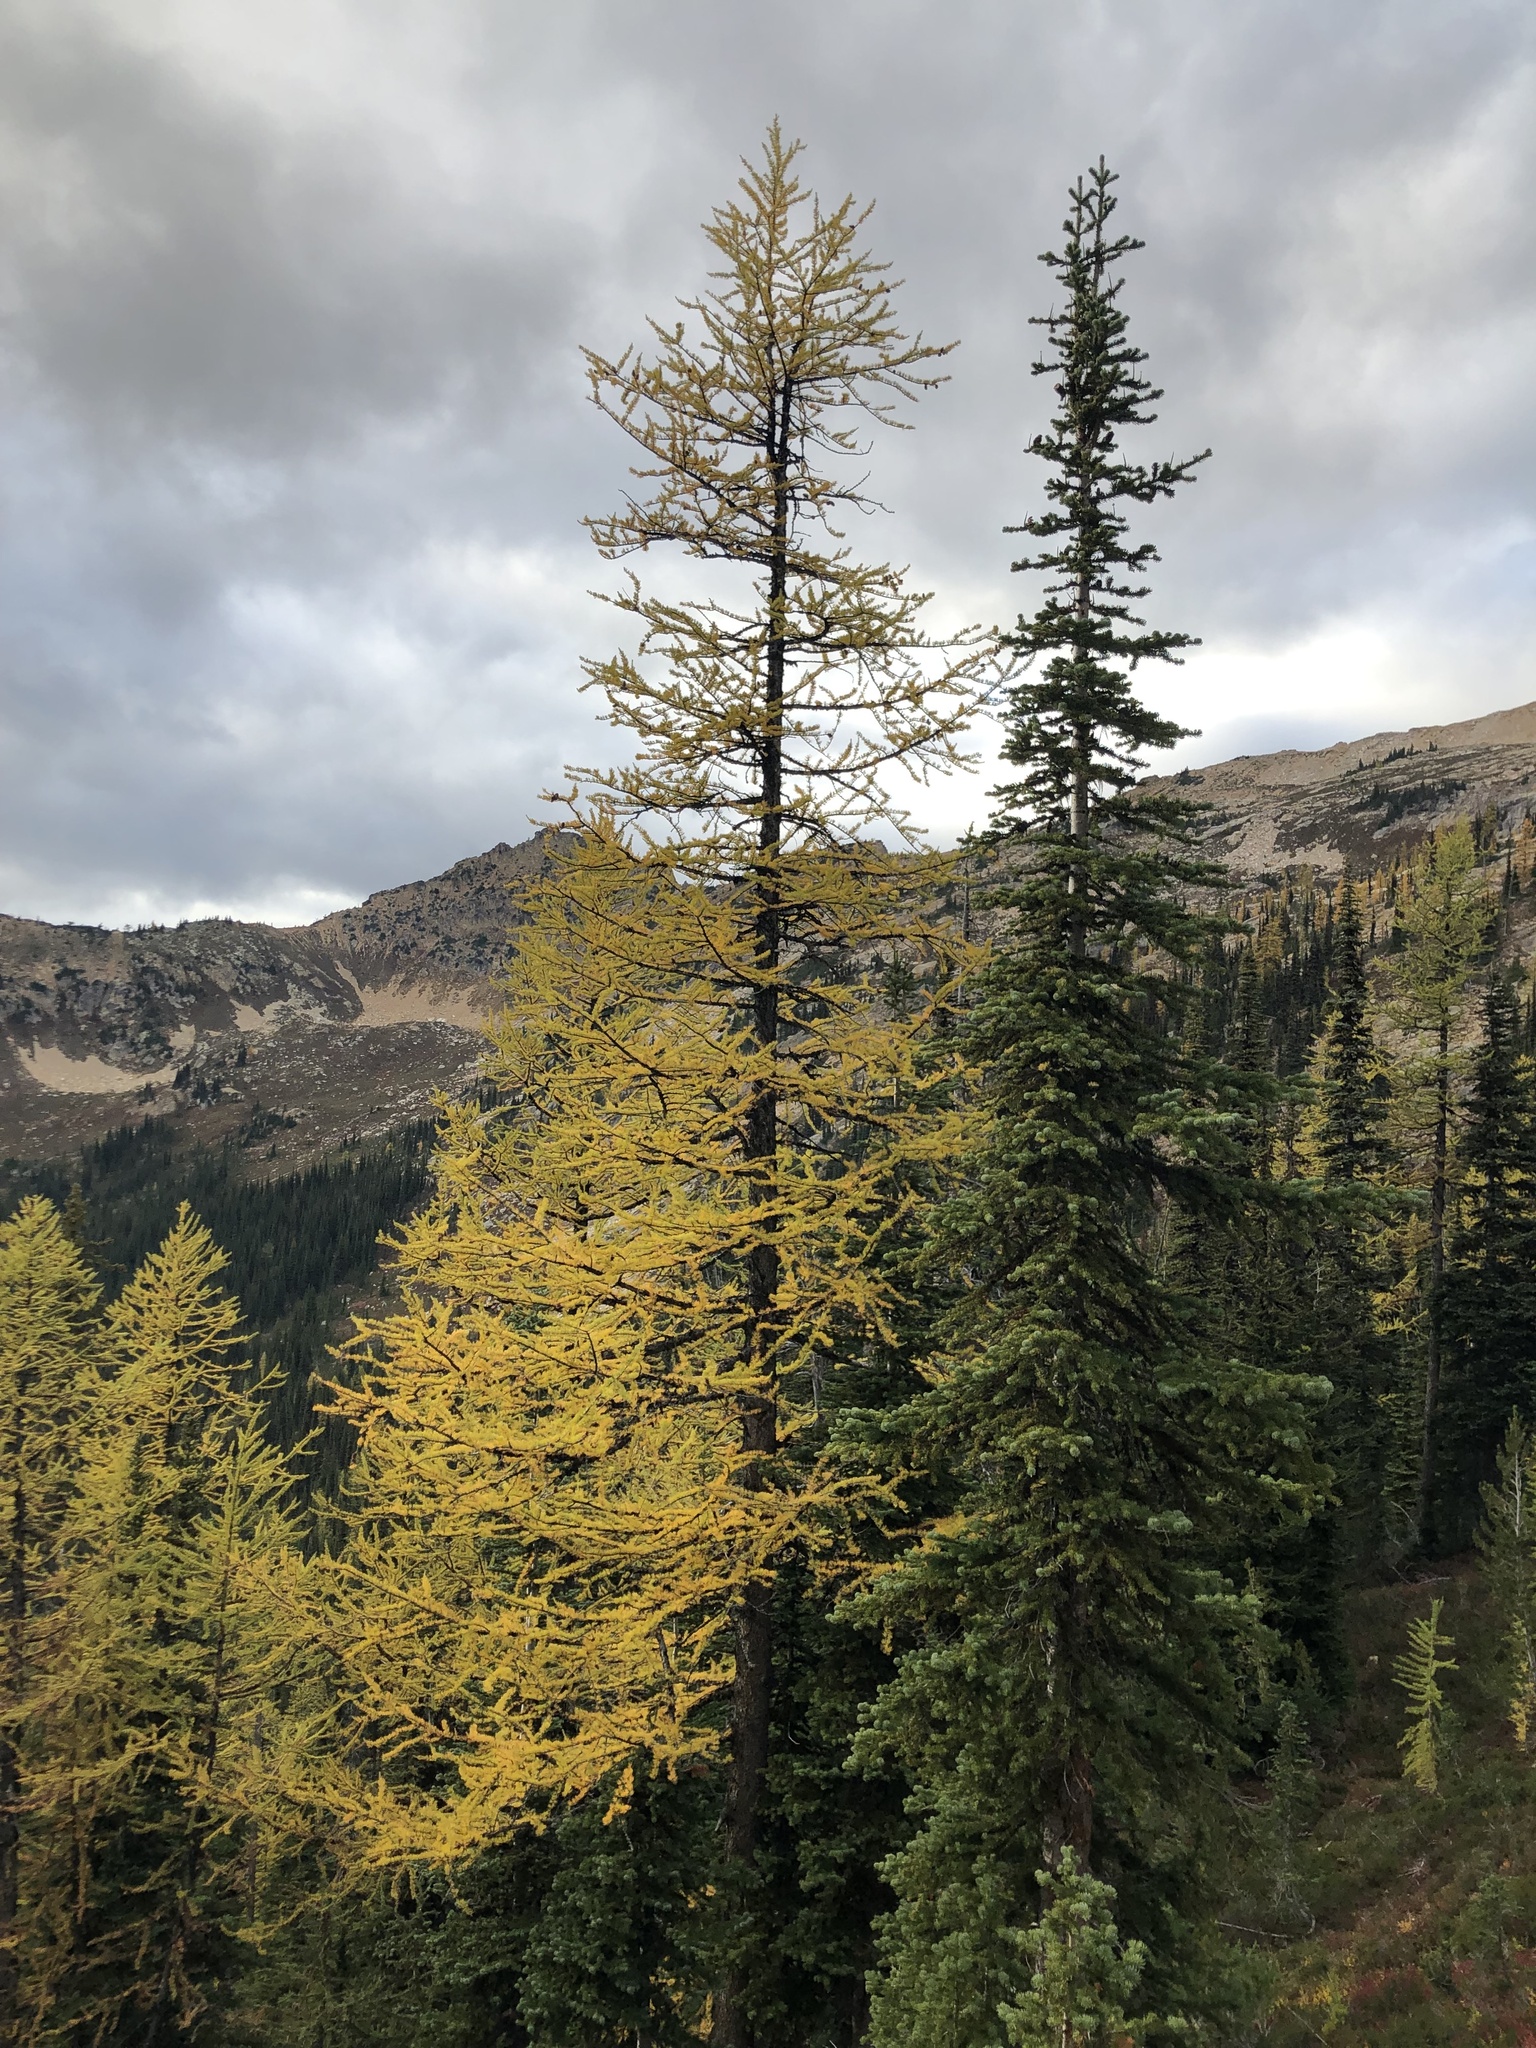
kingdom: Plantae
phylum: Tracheophyta
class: Pinopsida
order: Pinales
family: Pinaceae
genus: Larix
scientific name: Larix lyallii
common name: Alpine larch
